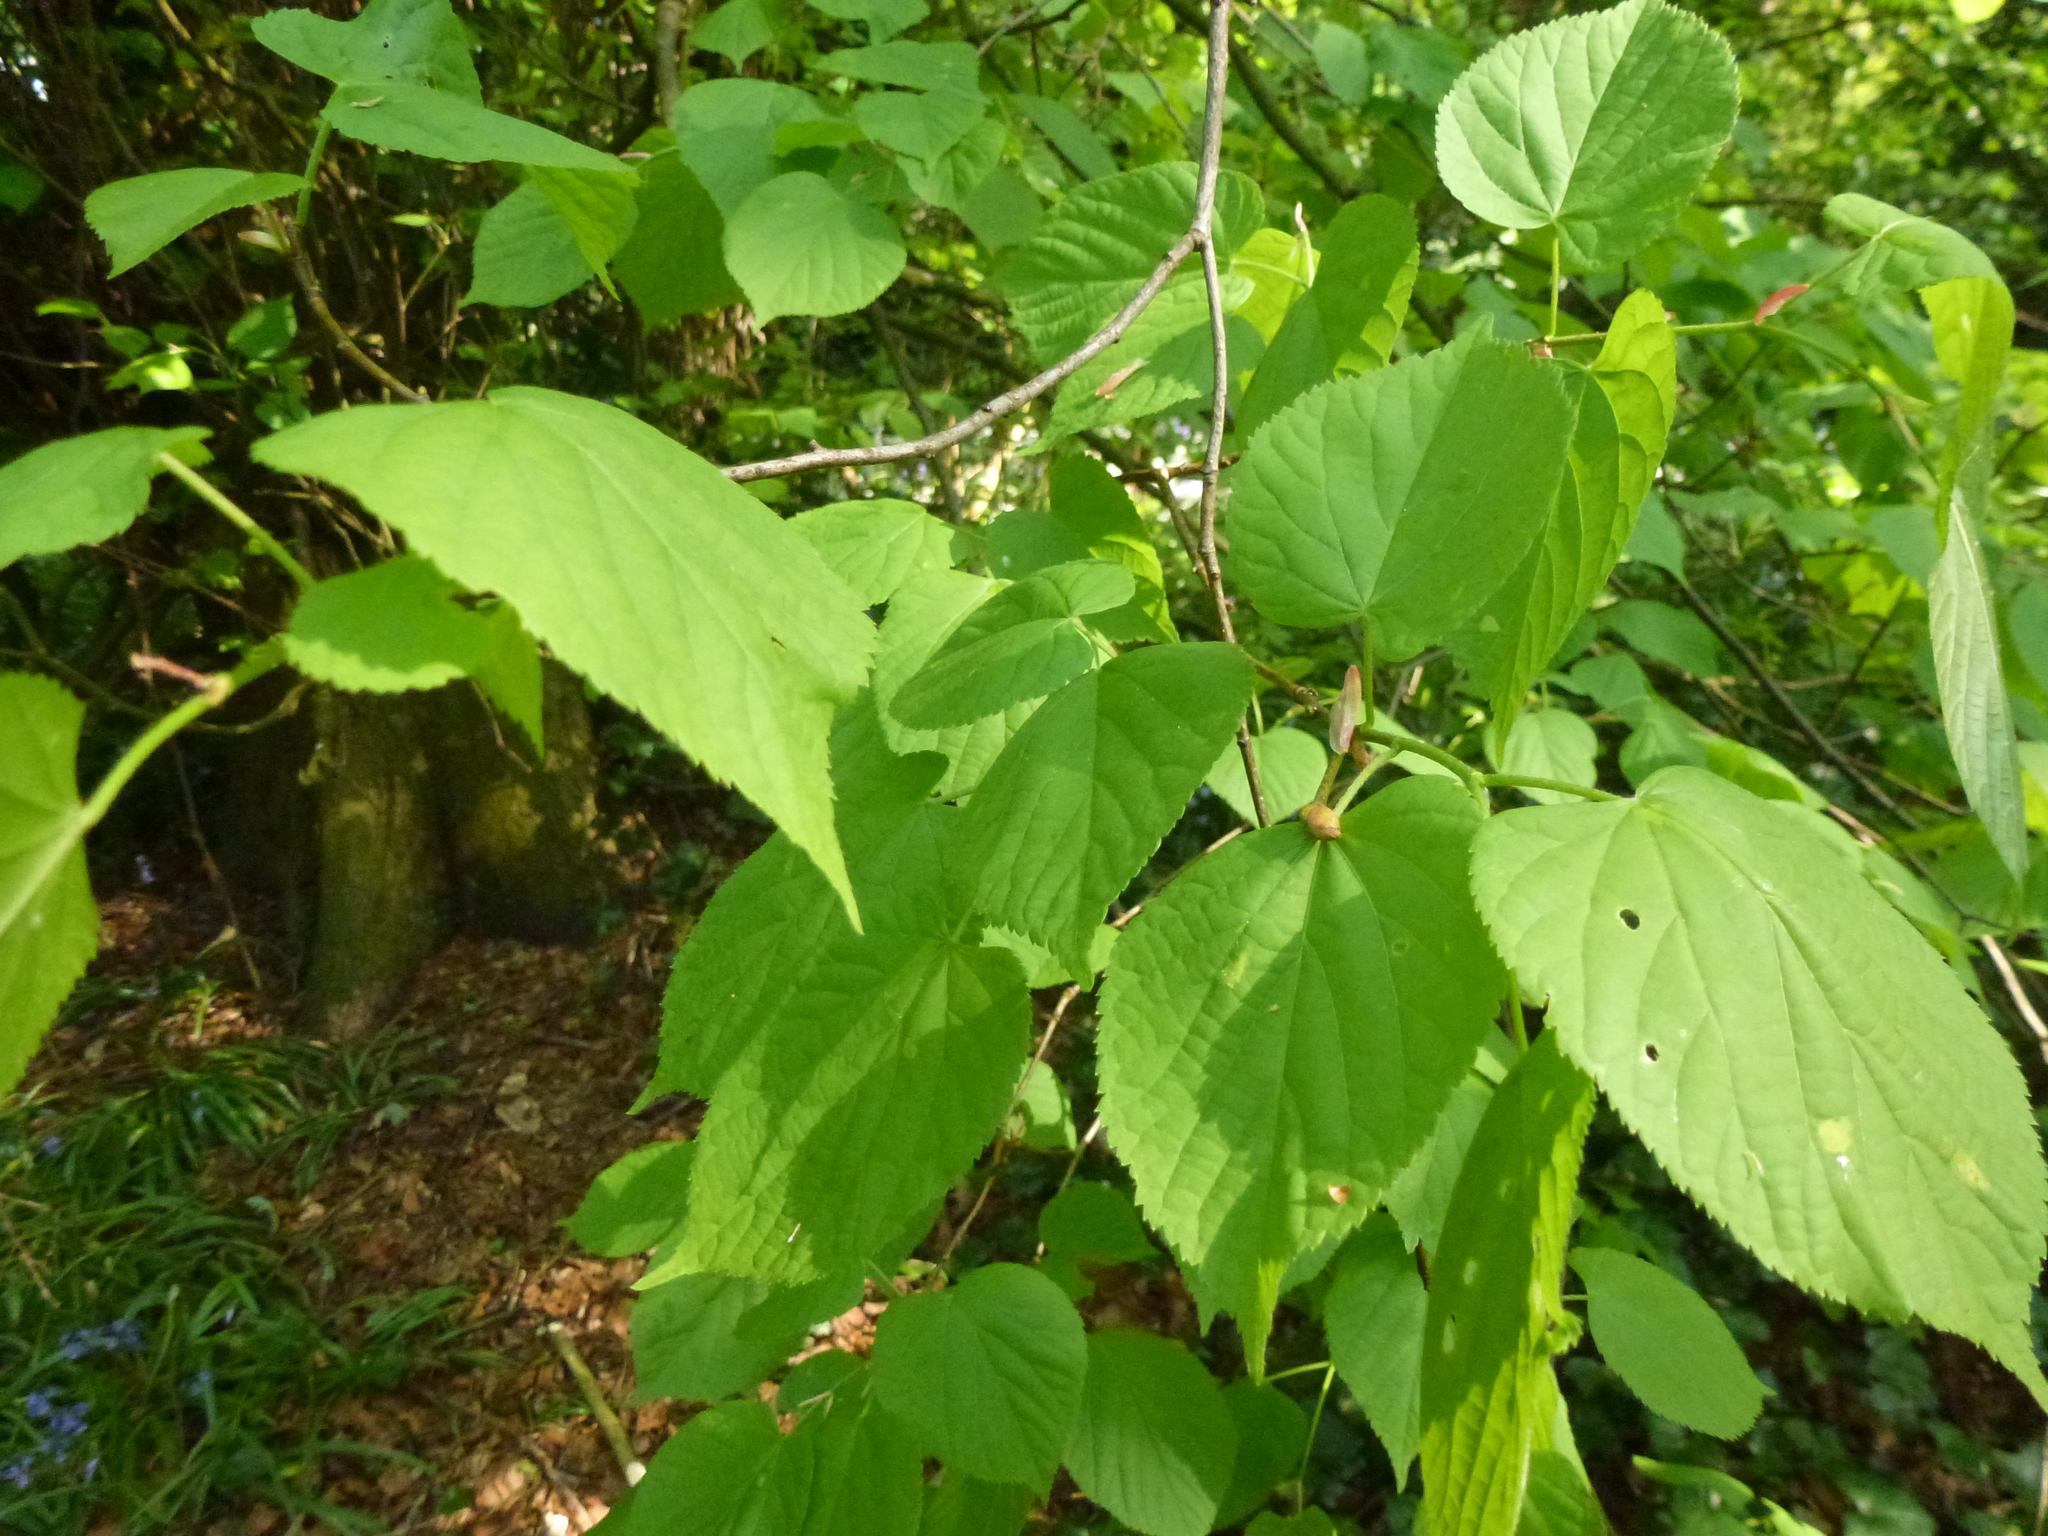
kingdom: Plantae
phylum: Tracheophyta
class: Magnoliopsida
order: Malvales
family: Malvaceae
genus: Tilia
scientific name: Tilia europaea
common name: European linden
